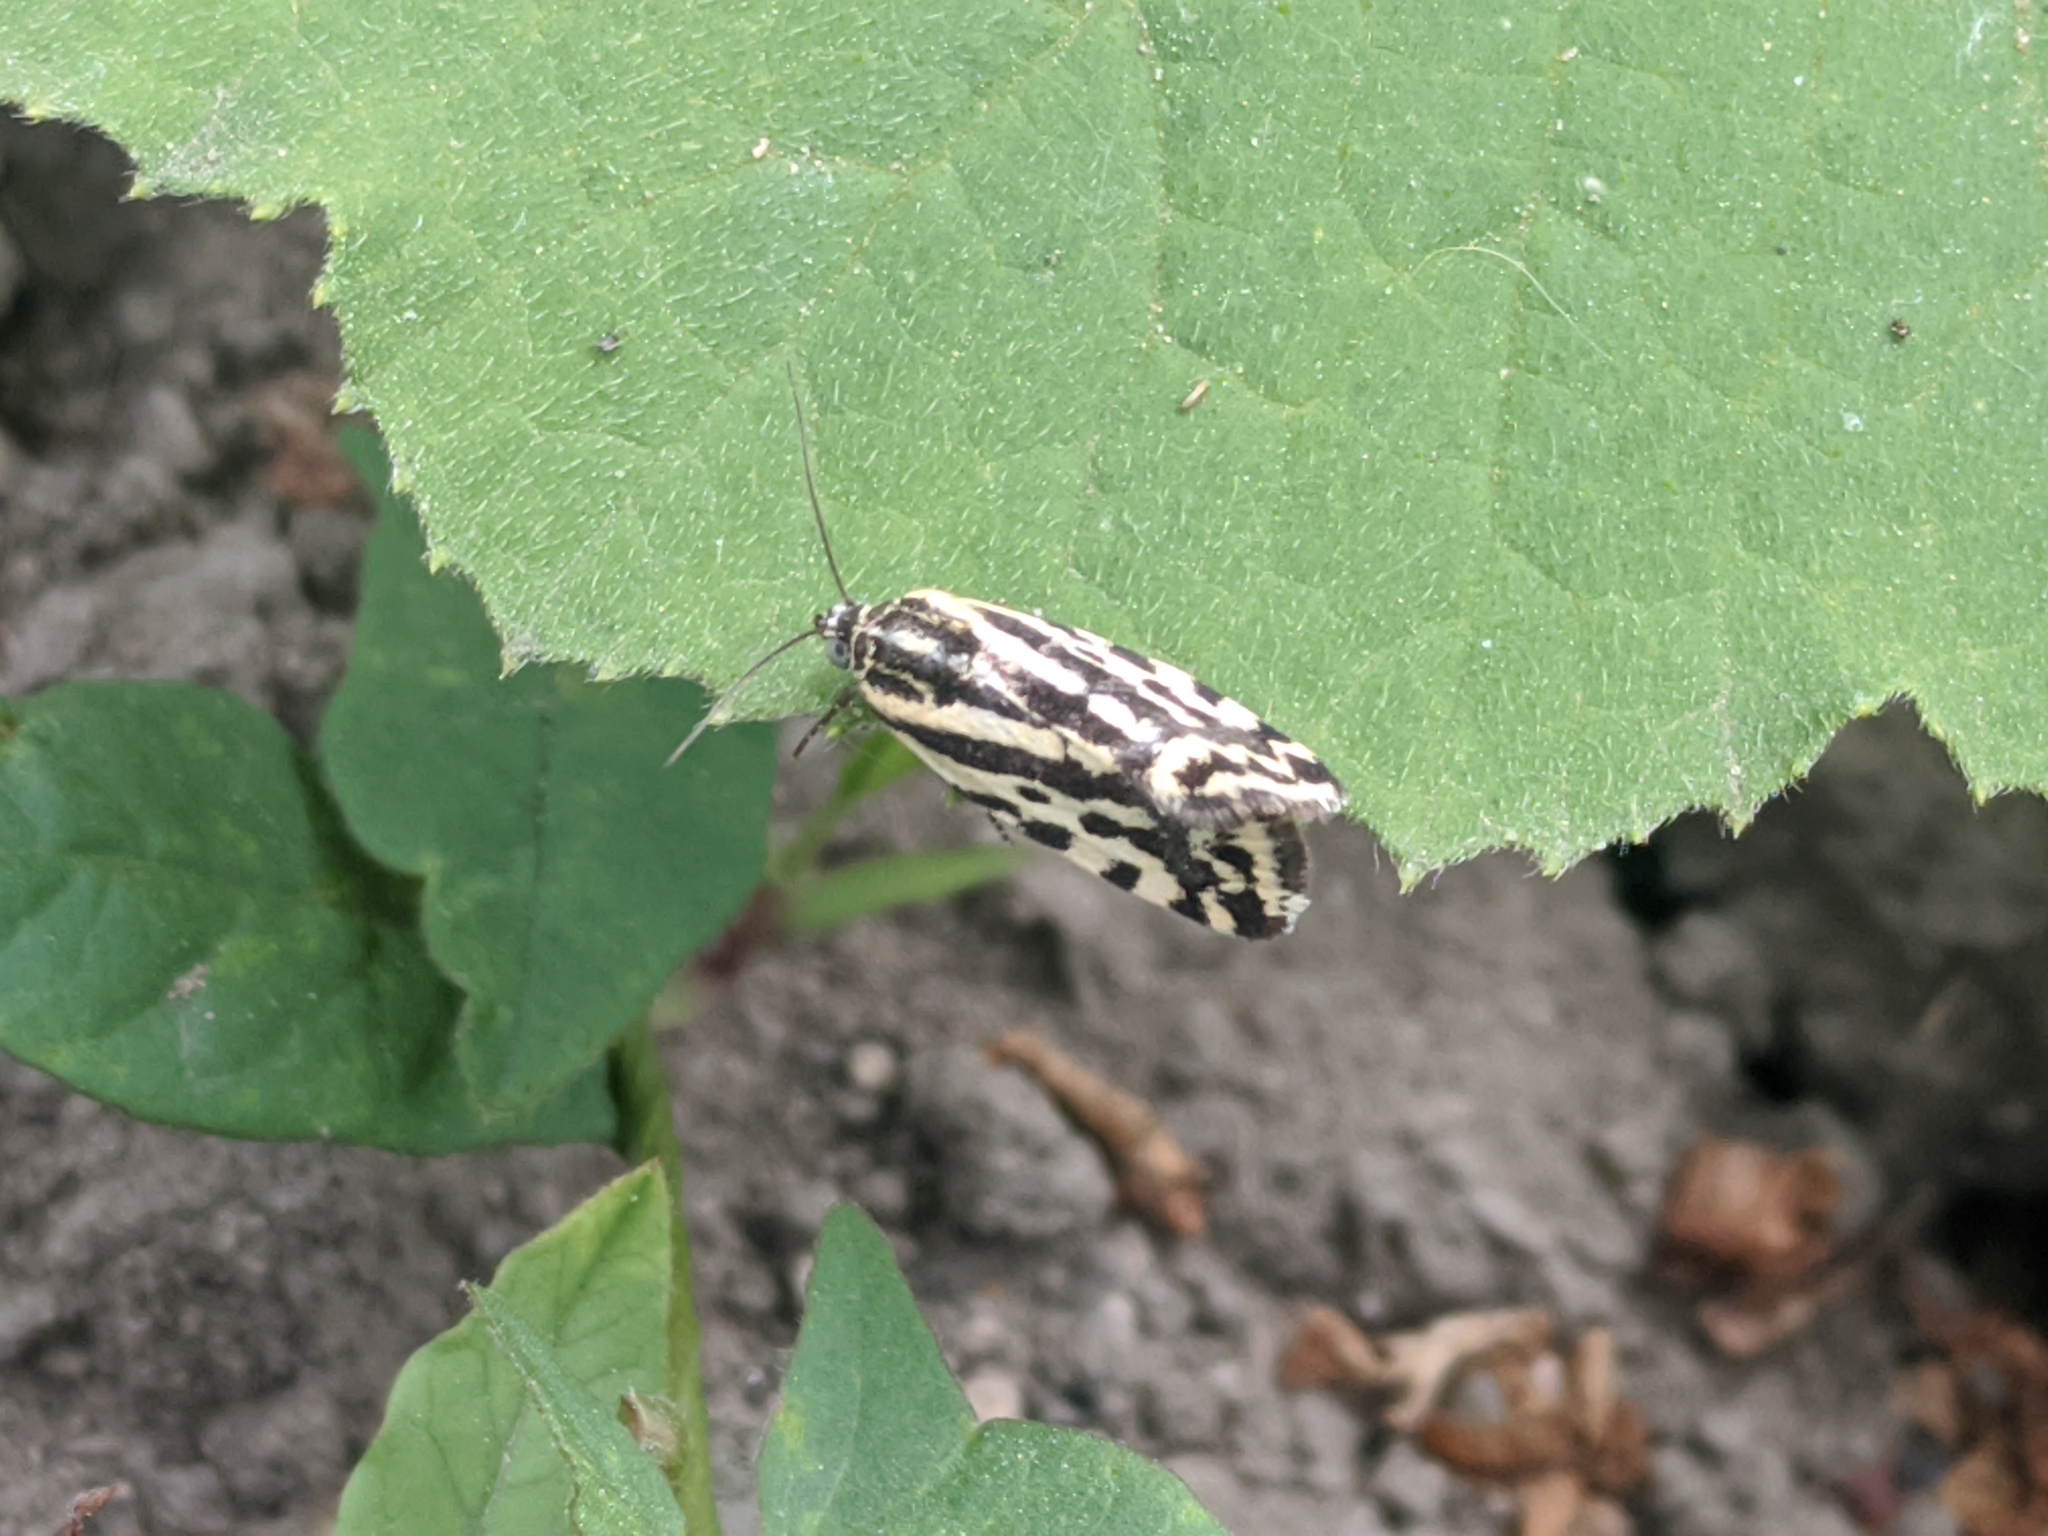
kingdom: Animalia
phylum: Arthropoda
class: Insecta
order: Lepidoptera
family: Noctuidae
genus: Acontia
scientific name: Acontia trabealis
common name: Spotted sulphur
